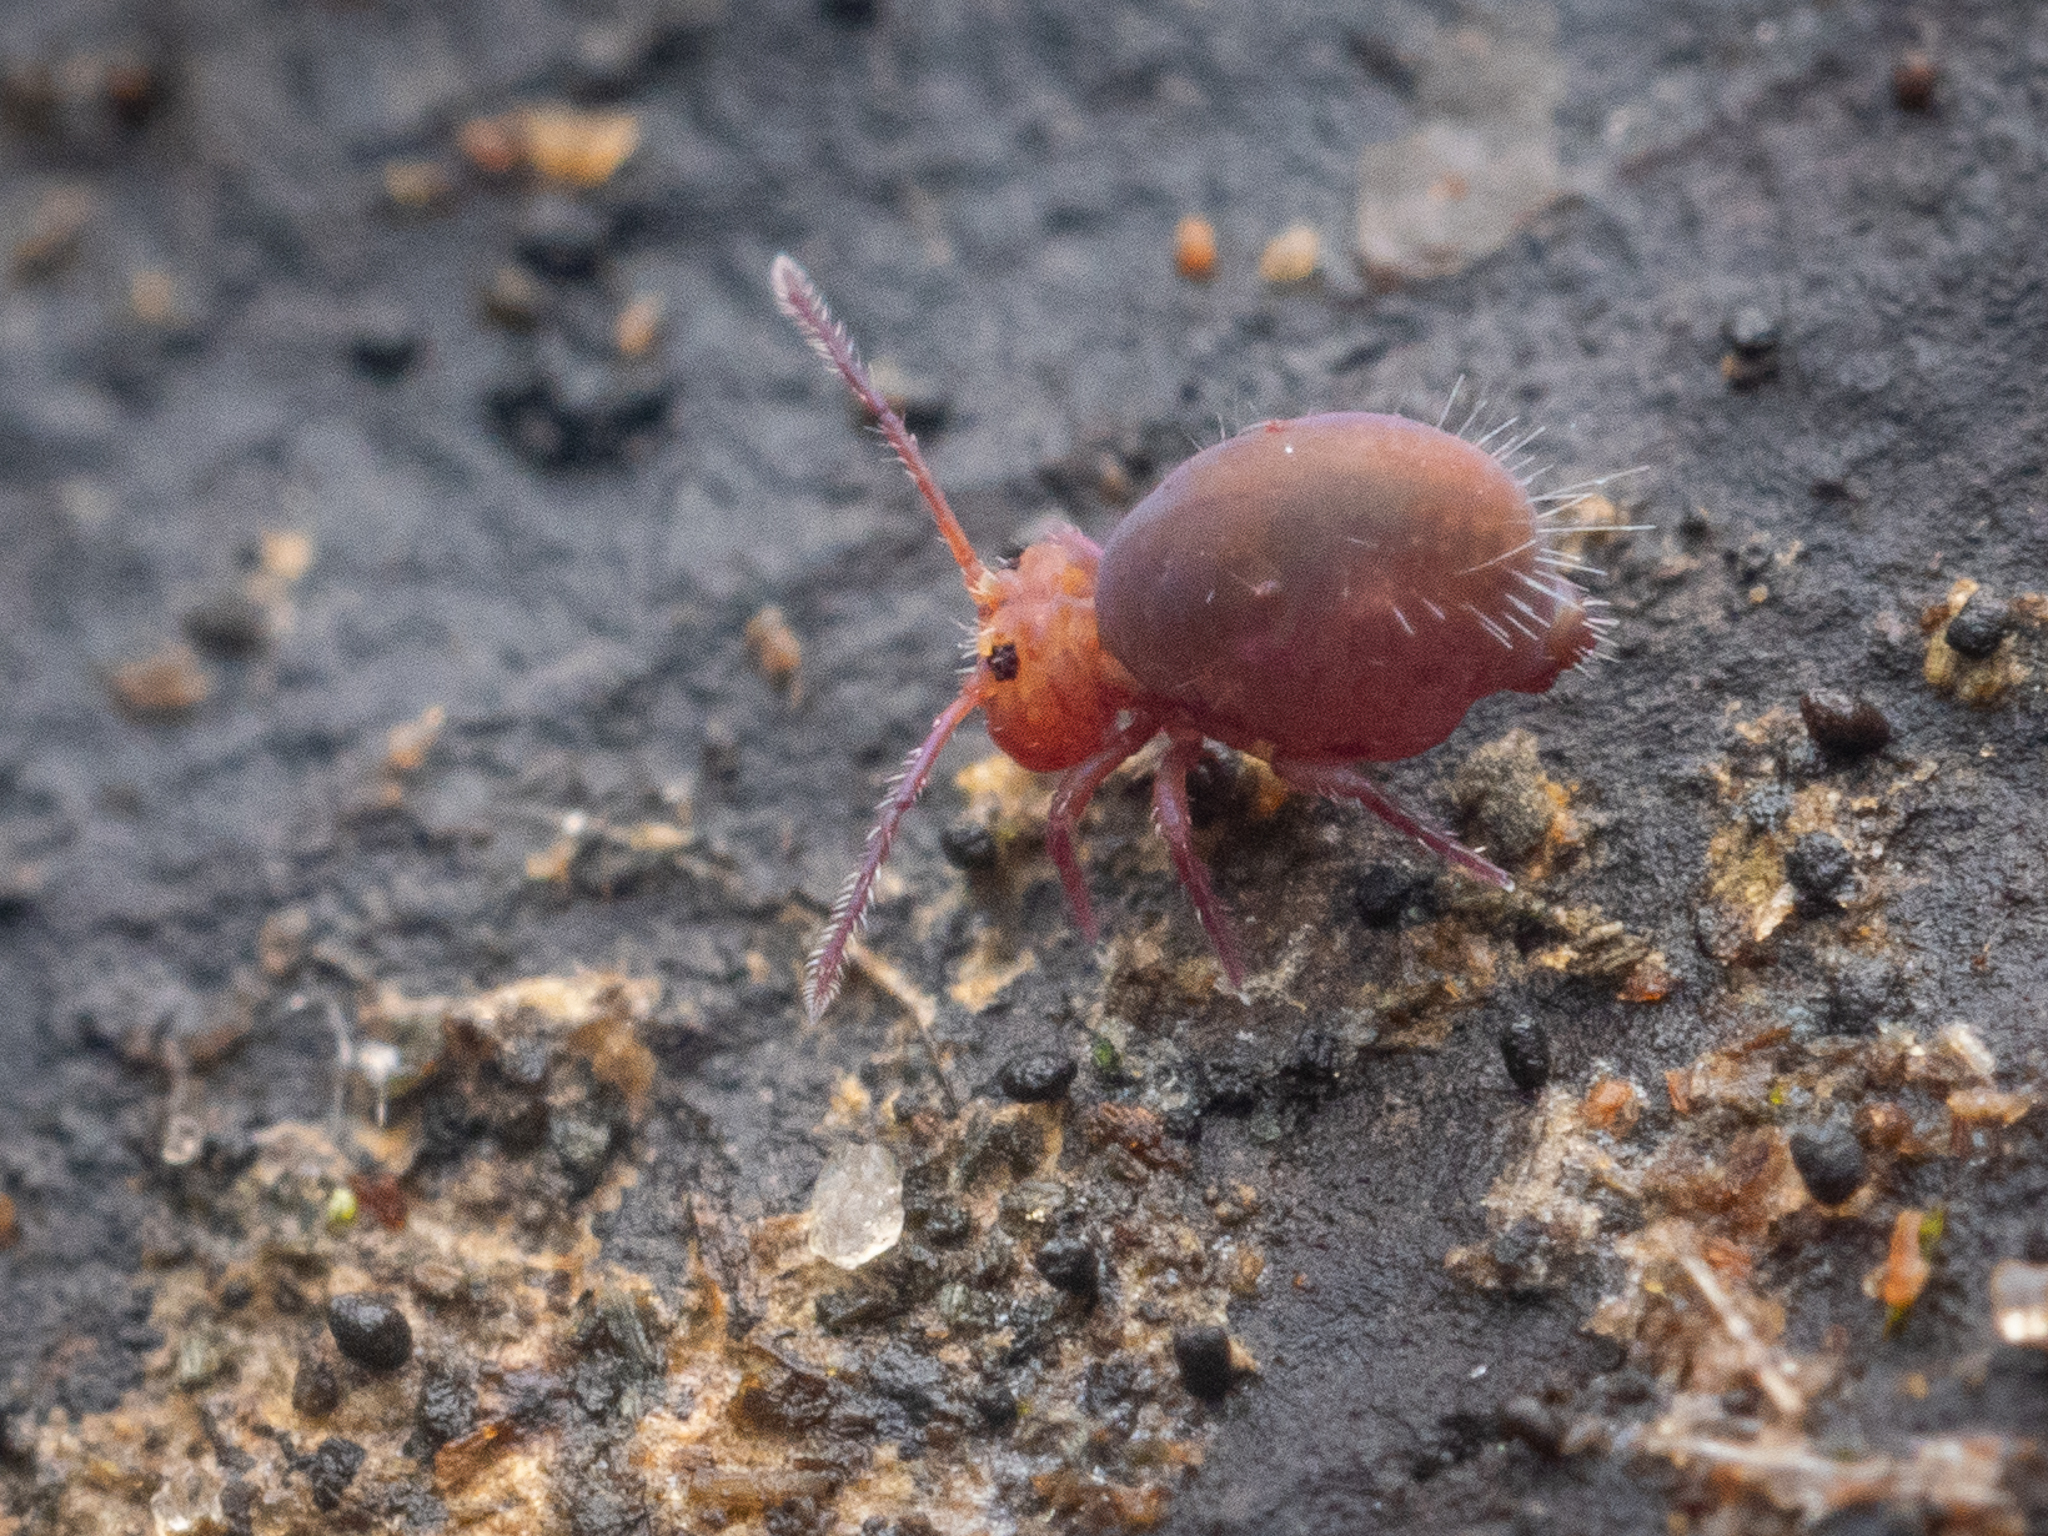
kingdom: Animalia
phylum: Arthropoda
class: Collembola
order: Symphypleona
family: Dicyrtomidae
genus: Dicyrtoma
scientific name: Dicyrtoma fusca
